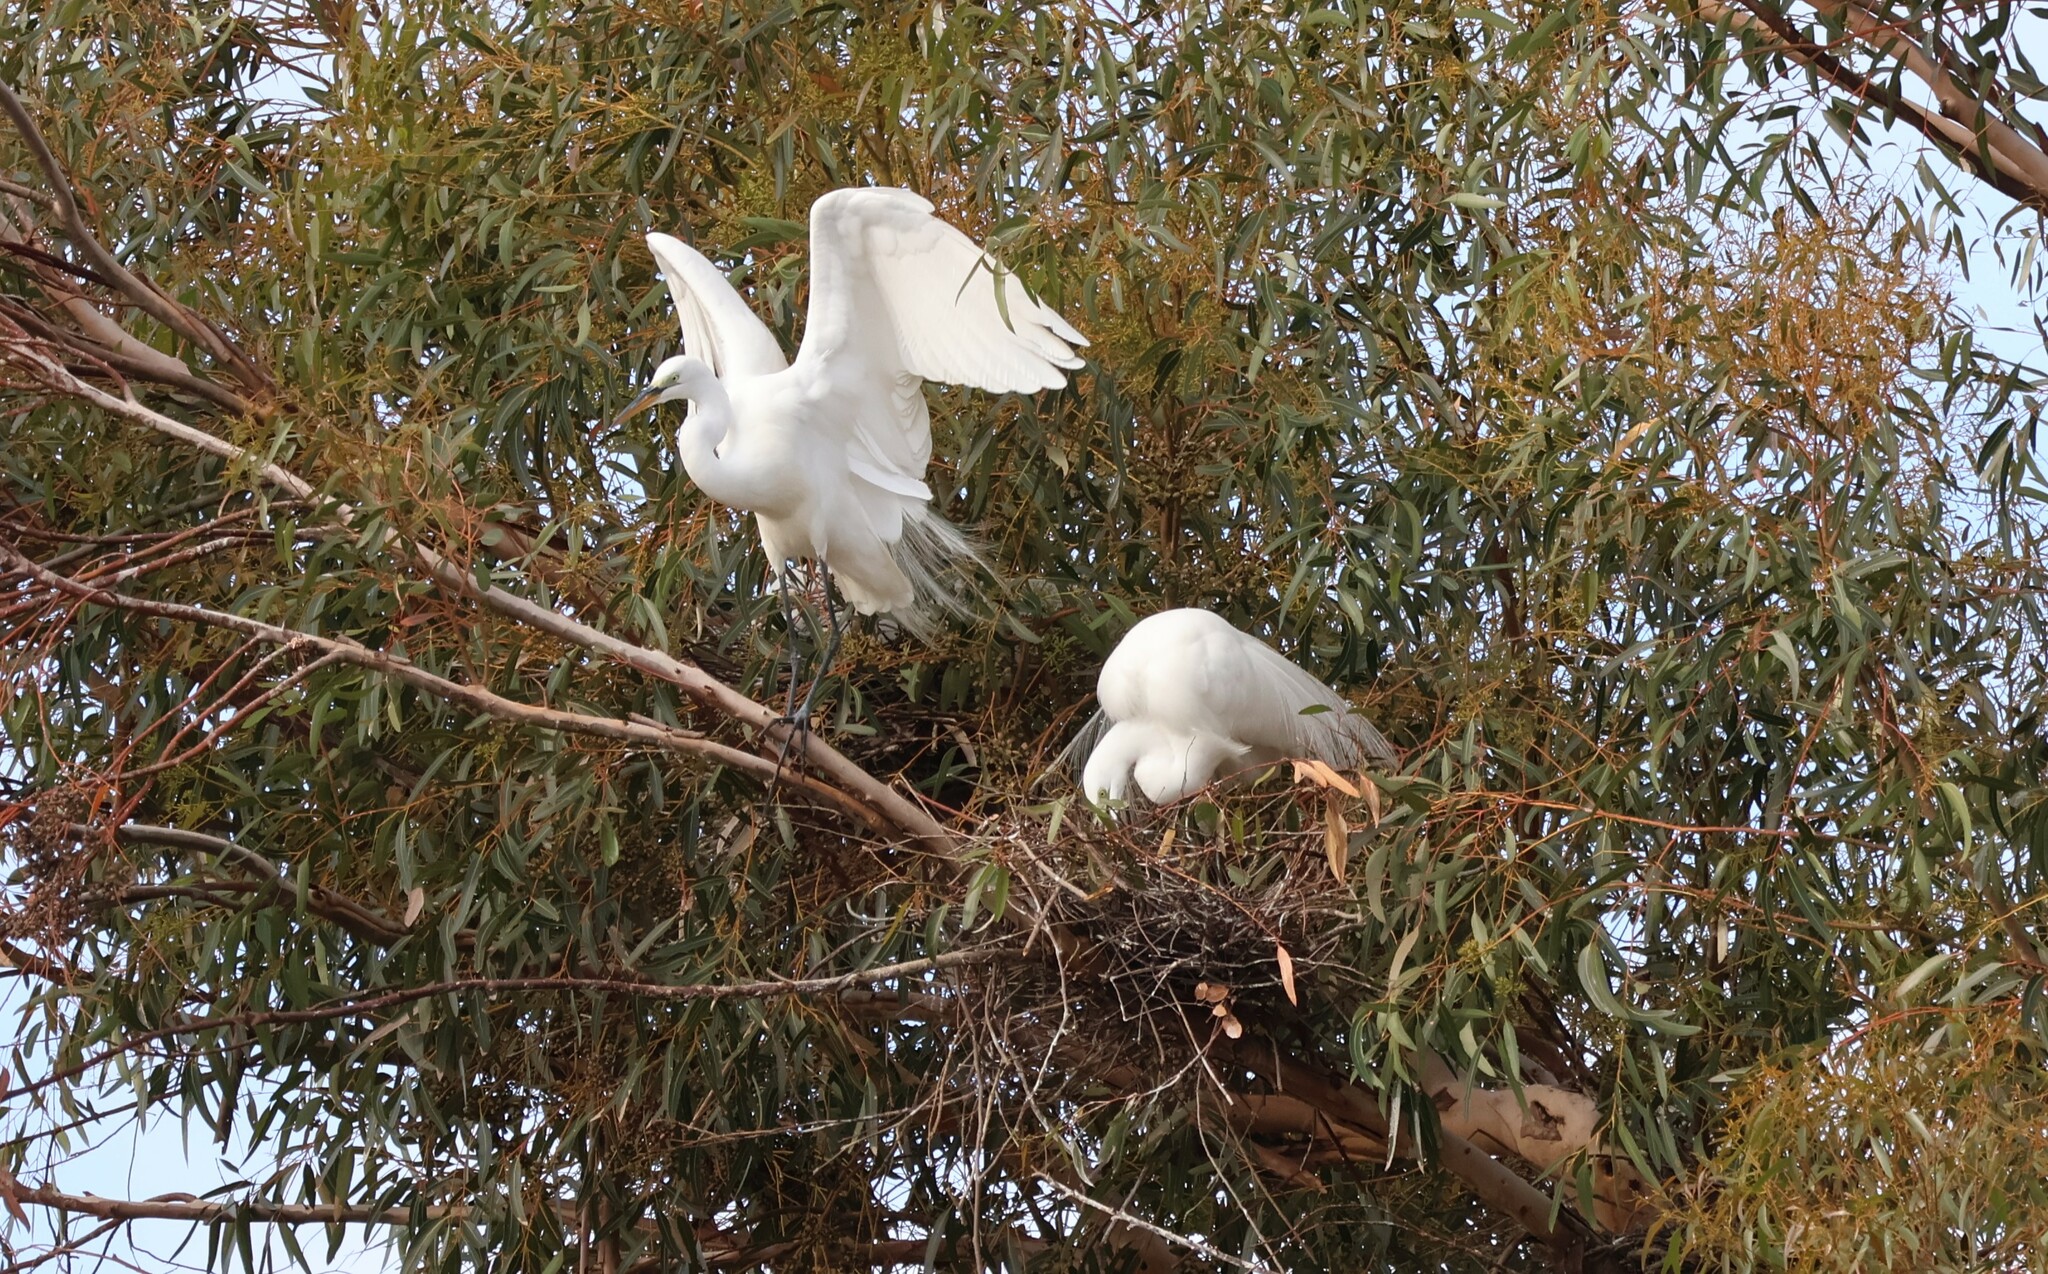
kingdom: Animalia
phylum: Chordata
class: Aves
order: Pelecaniformes
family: Ardeidae
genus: Ardea
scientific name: Ardea alba
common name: Great egret
